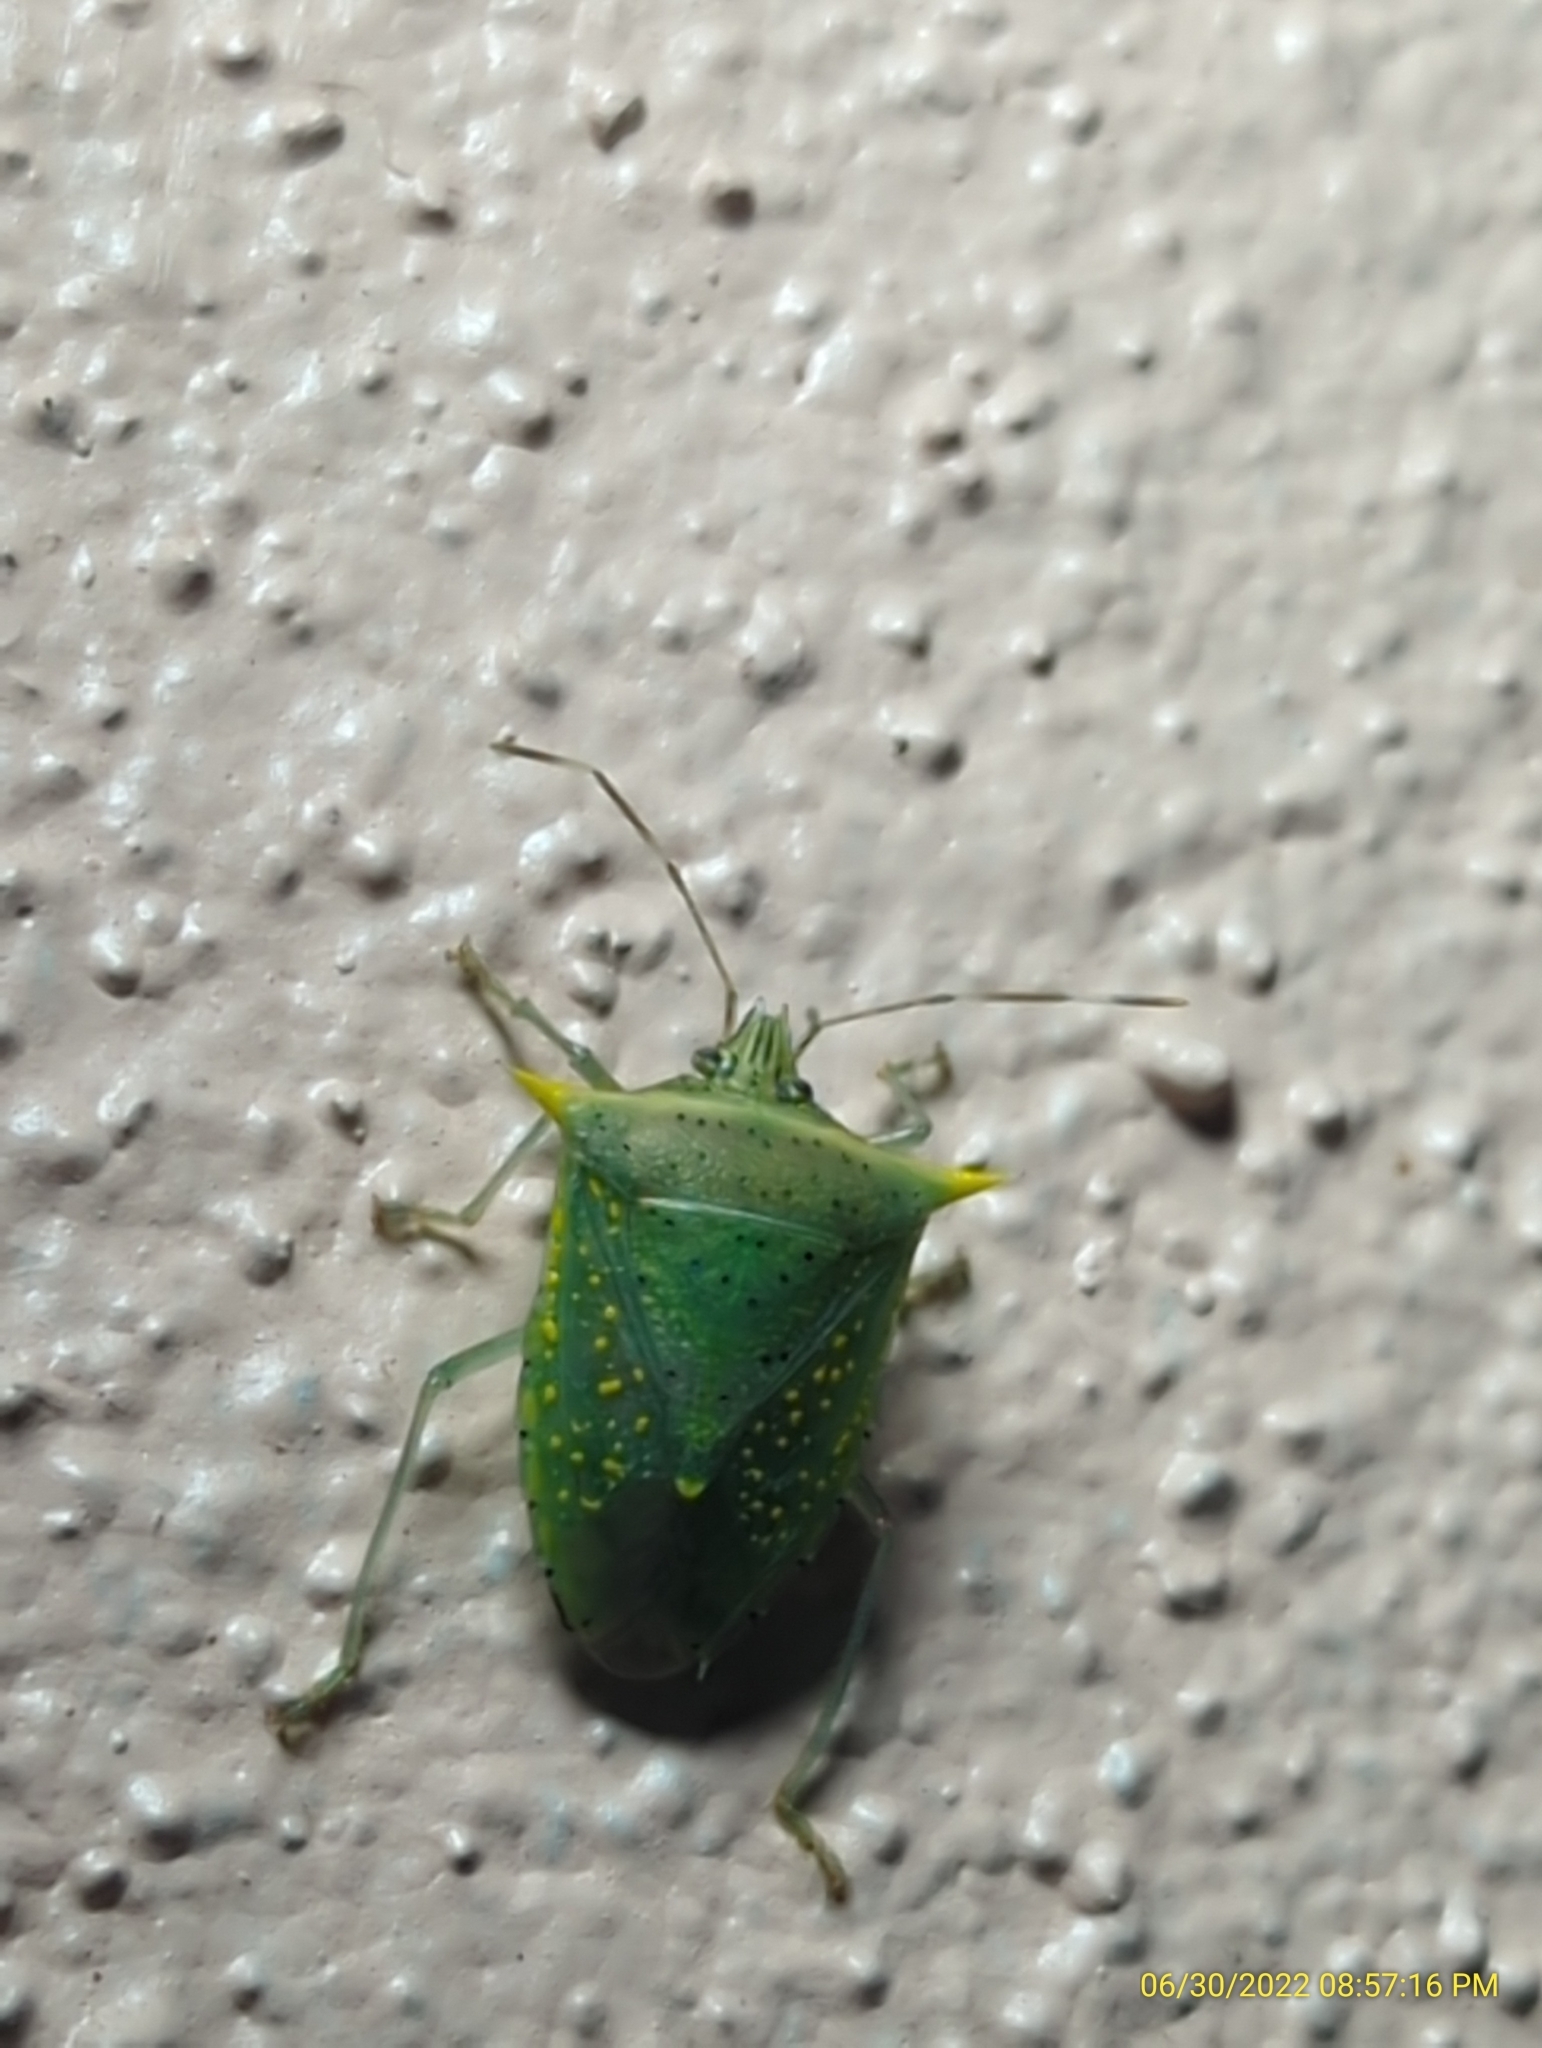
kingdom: Animalia
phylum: Arthropoda
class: Insecta
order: Hemiptera
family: Pentatomidae
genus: Arvelius
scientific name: Arvelius albopunctatus
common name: Tomato stink bug
